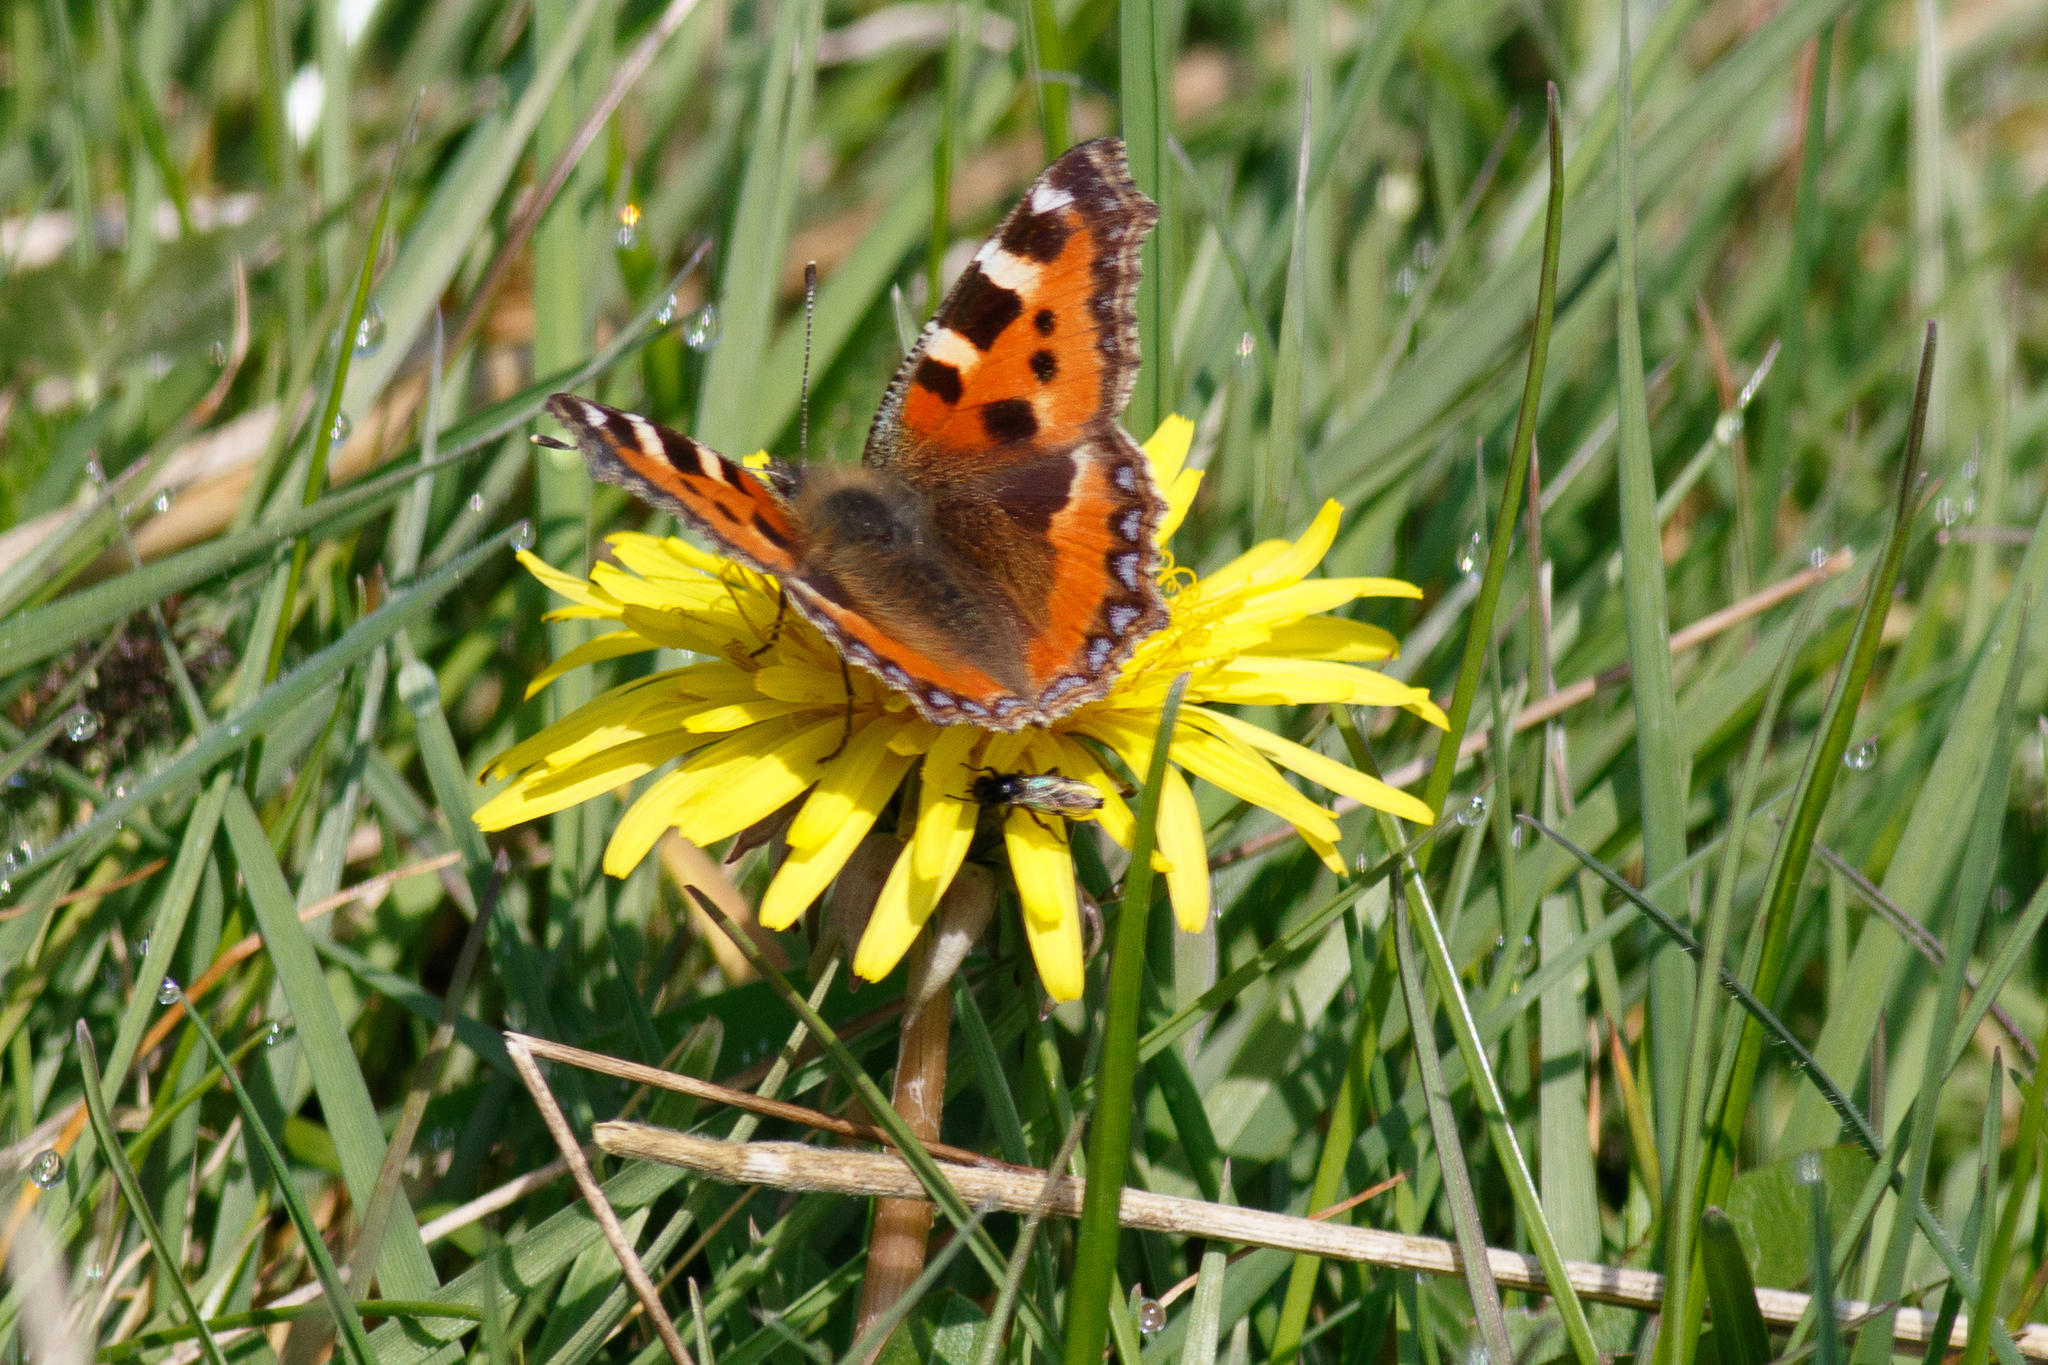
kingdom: Animalia
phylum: Arthropoda
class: Insecta
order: Lepidoptera
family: Nymphalidae
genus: Aglais
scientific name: Aglais urticae
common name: Small tortoiseshell
